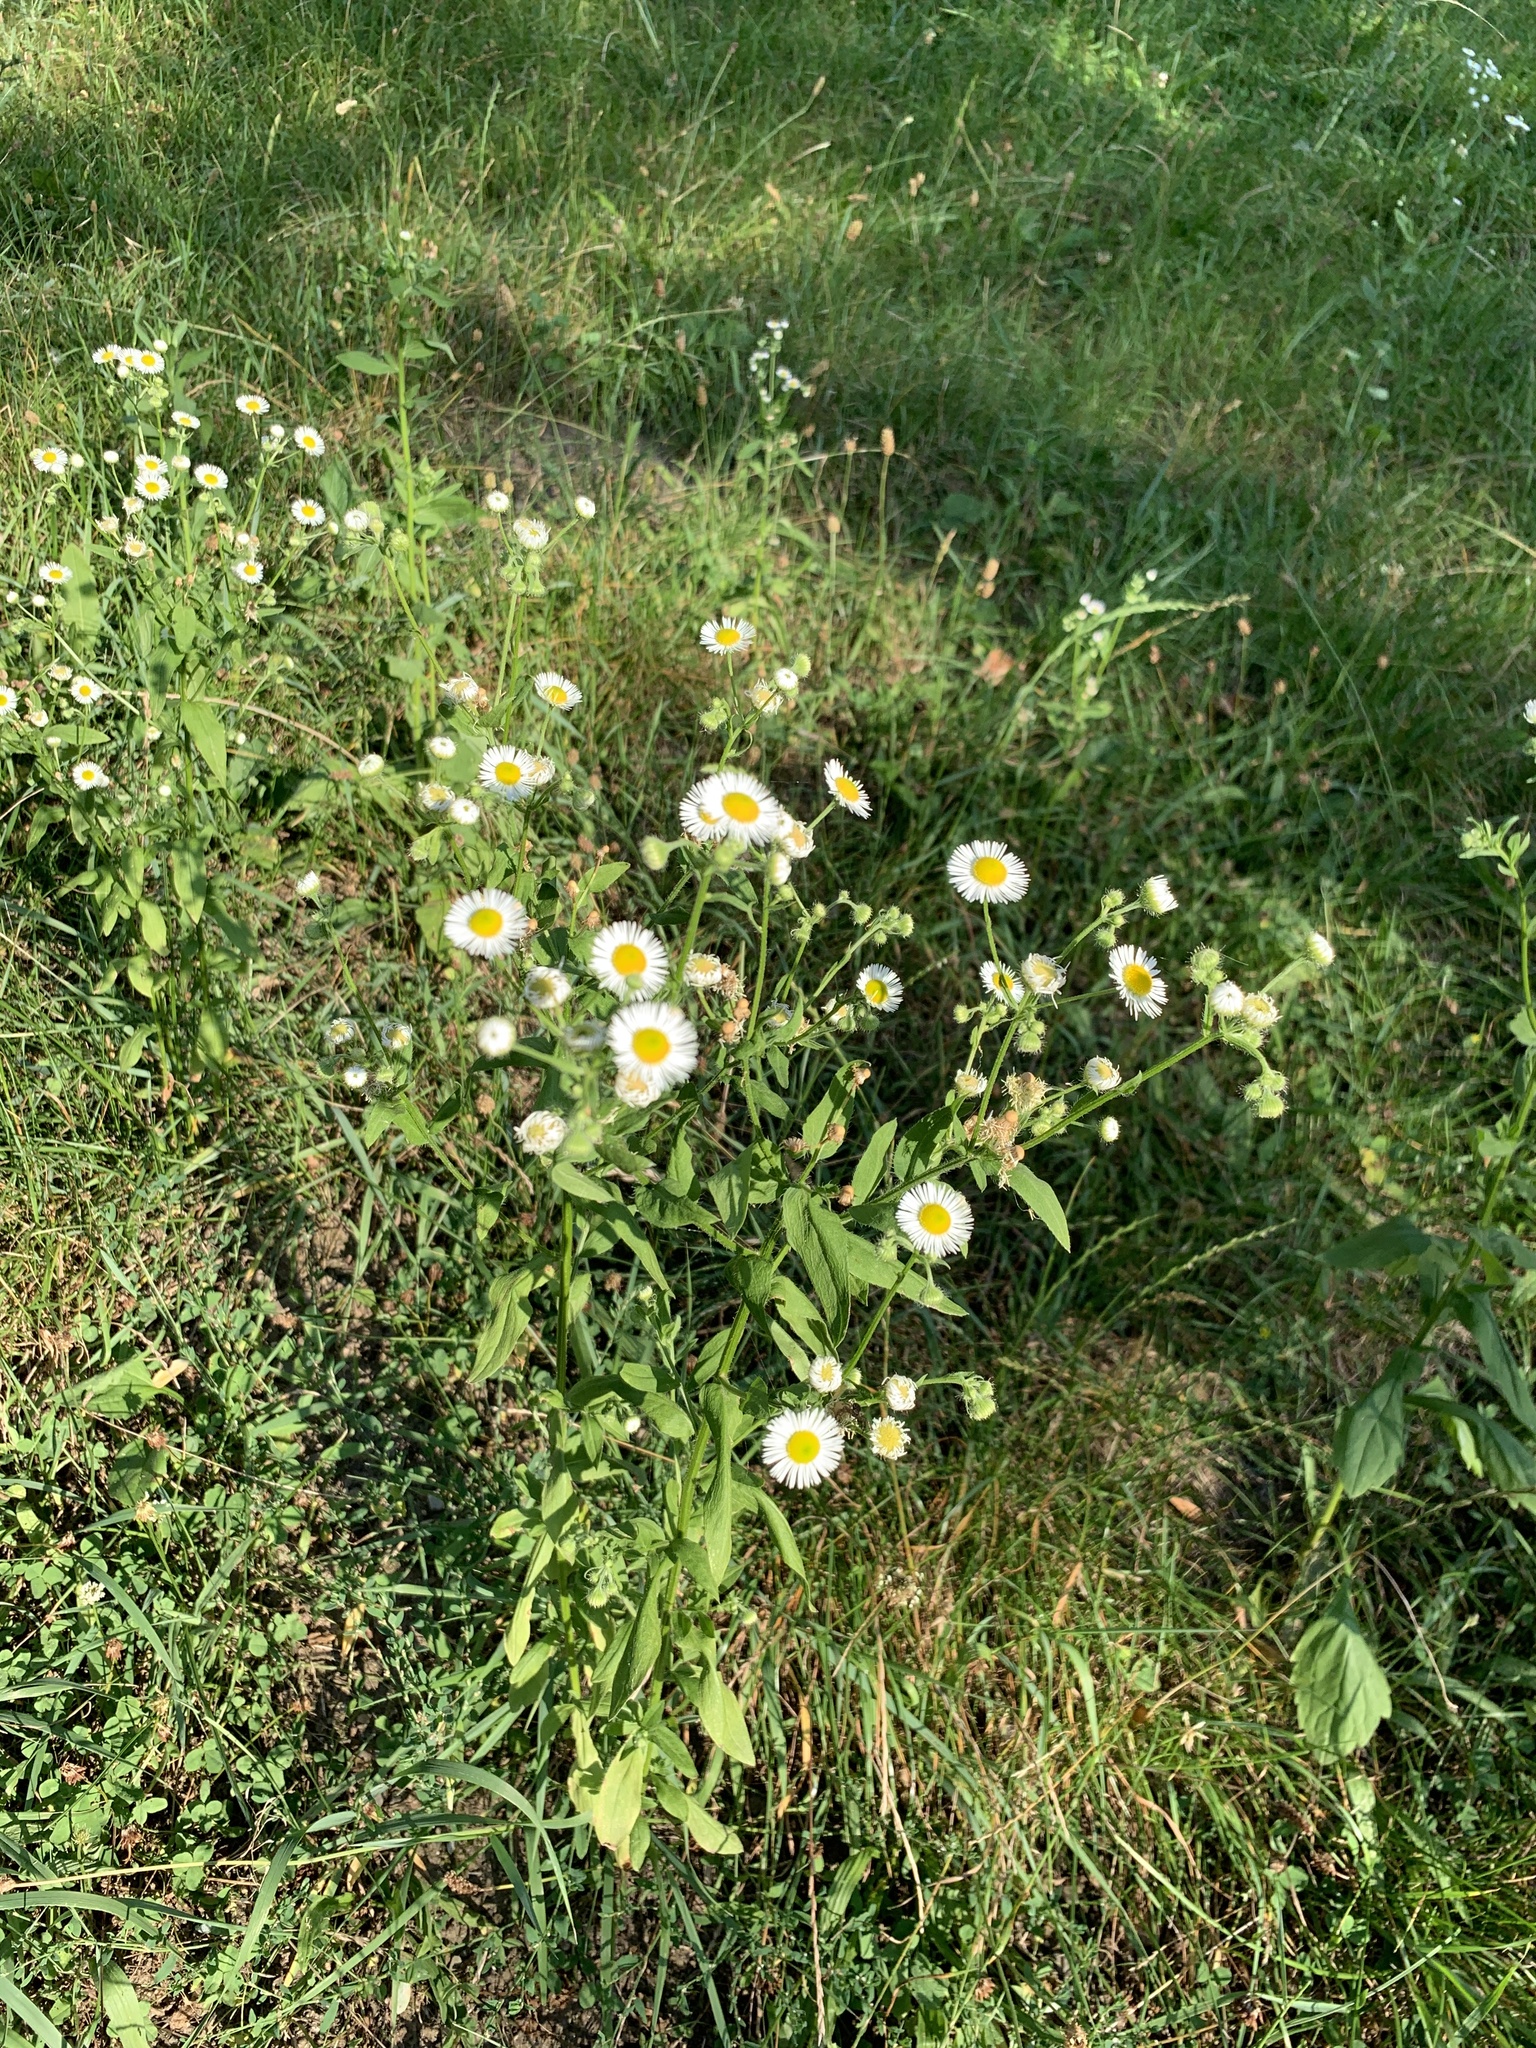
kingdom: Plantae
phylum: Tracheophyta
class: Magnoliopsida
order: Asterales
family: Asteraceae
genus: Erigeron
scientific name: Erigeron annuus
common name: Tall fleabane
